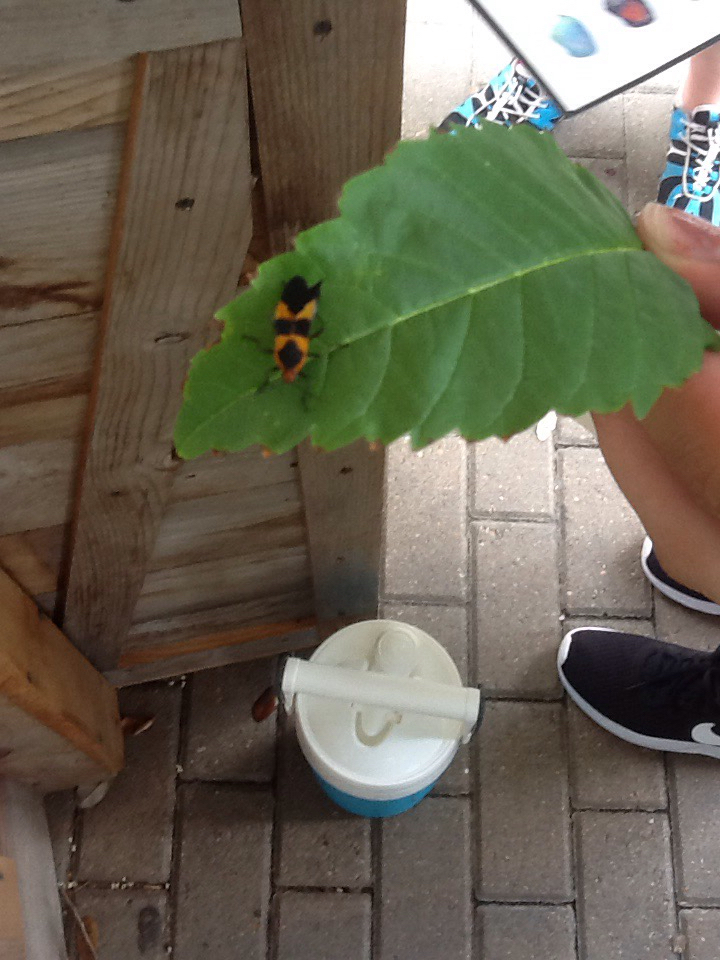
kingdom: Animalia
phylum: Arthropoda
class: Insecta
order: Hemiptera
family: Lygaeidae
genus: Oncopeltus
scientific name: Oncopeltus fasciatus
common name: Large milkweed bug
